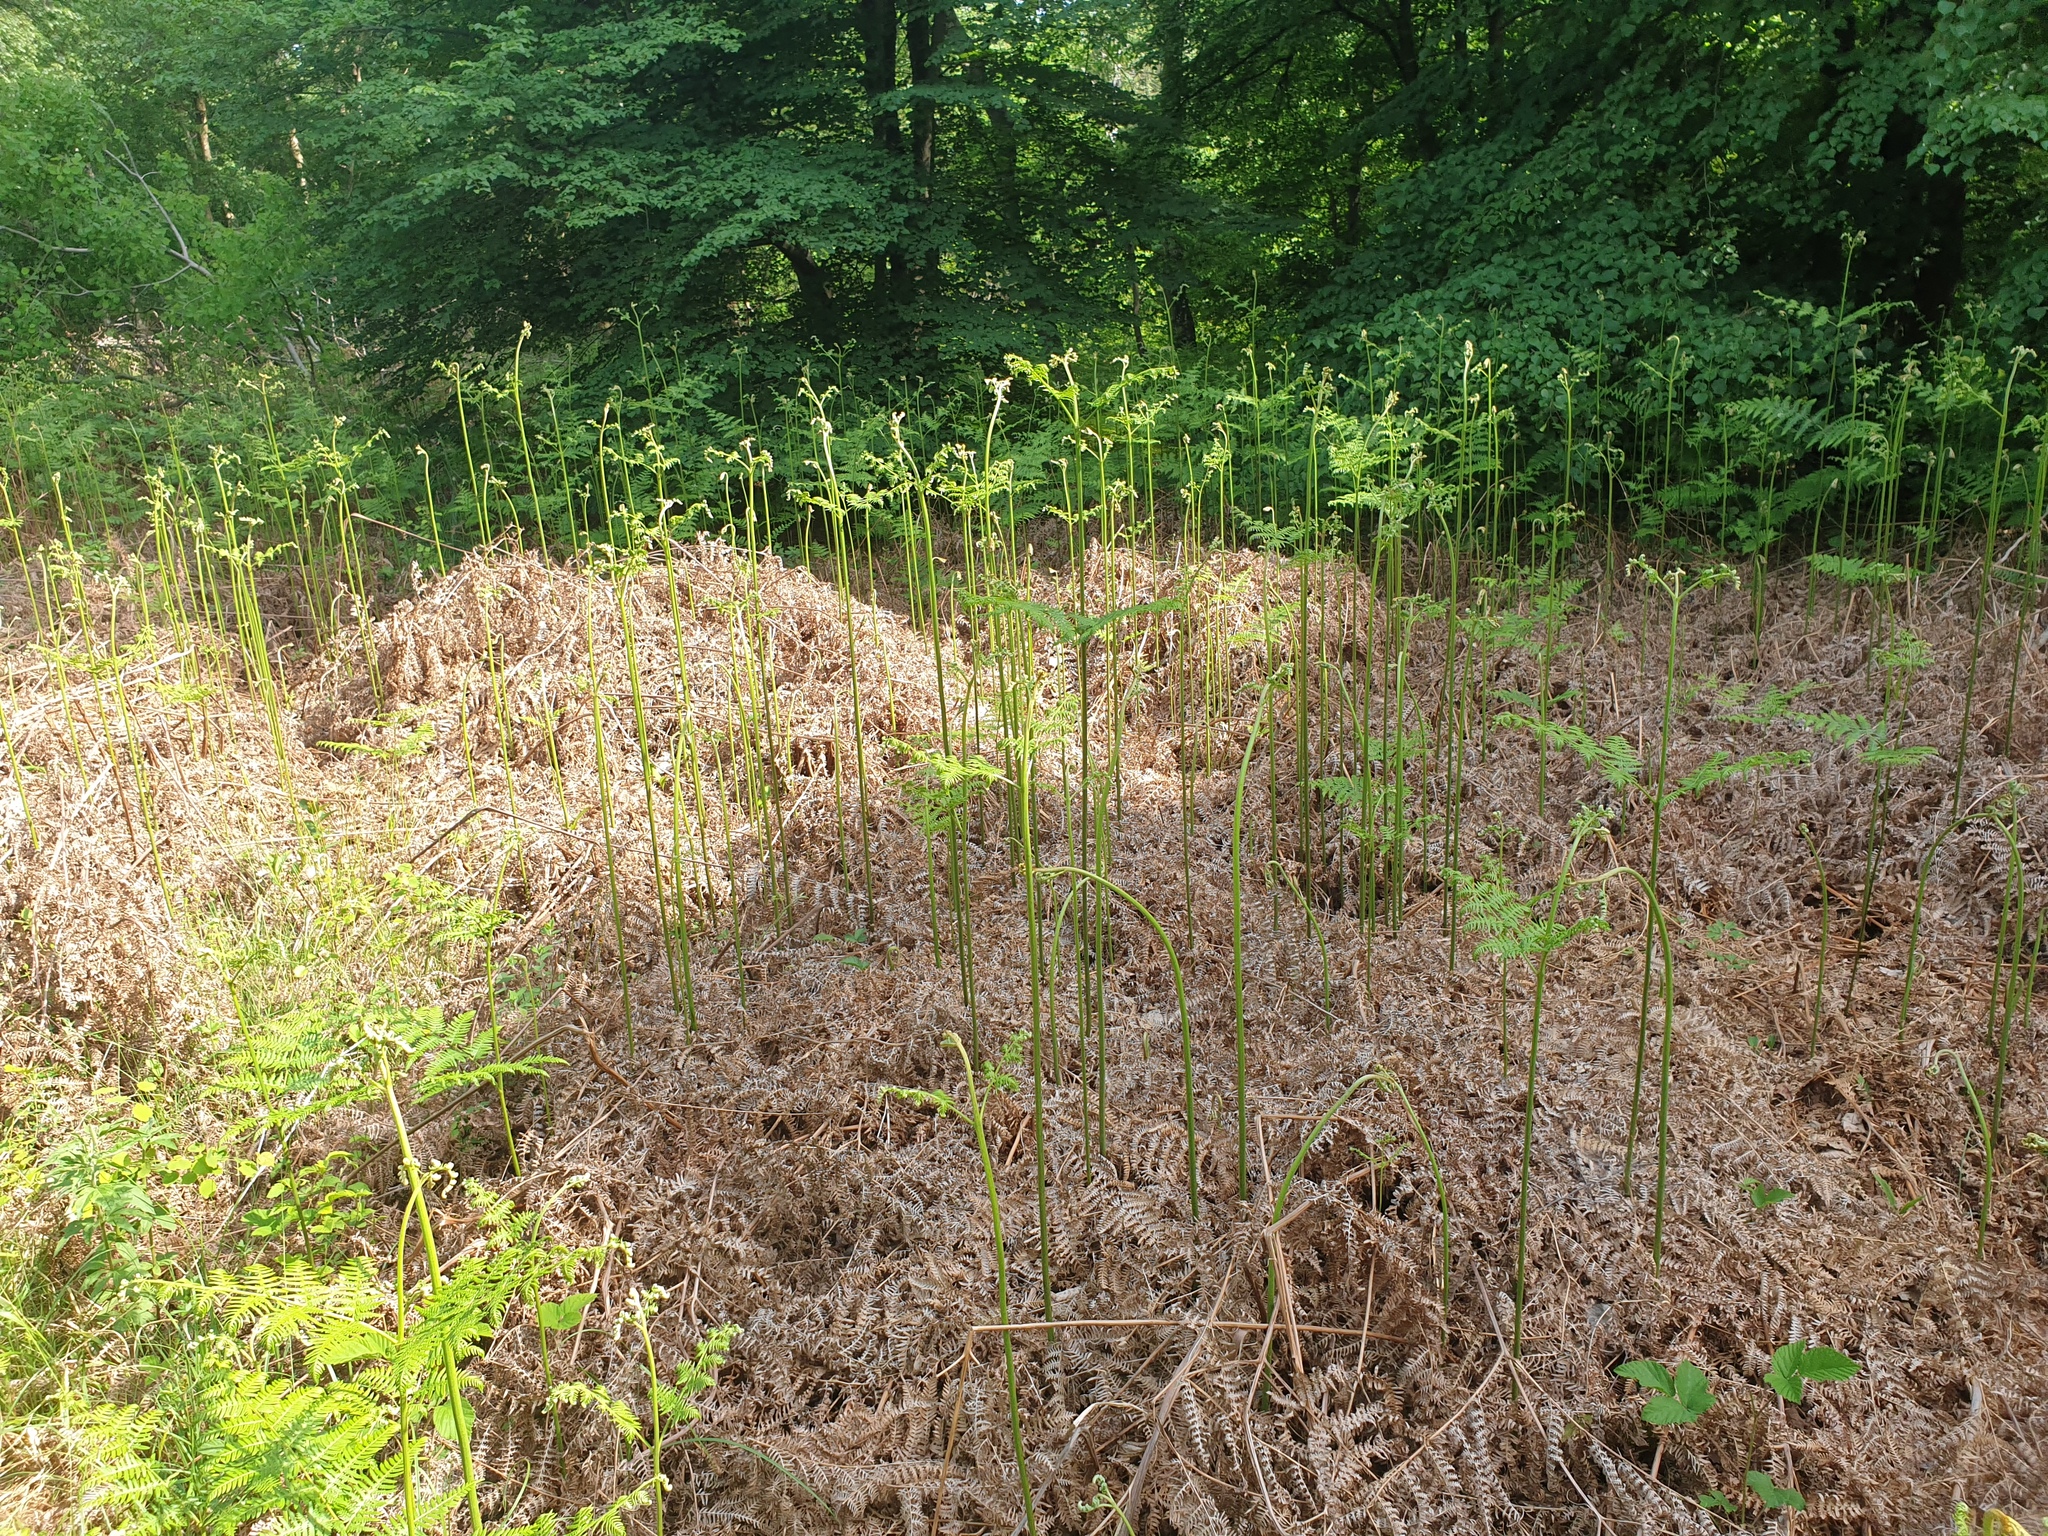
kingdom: Plantae
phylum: Tracheophyta
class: Polypodiopsida
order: Polypodiales
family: Dennstaedtiaceae
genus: Pteridium
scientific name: Pteridium aquilinum
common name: Bracken
